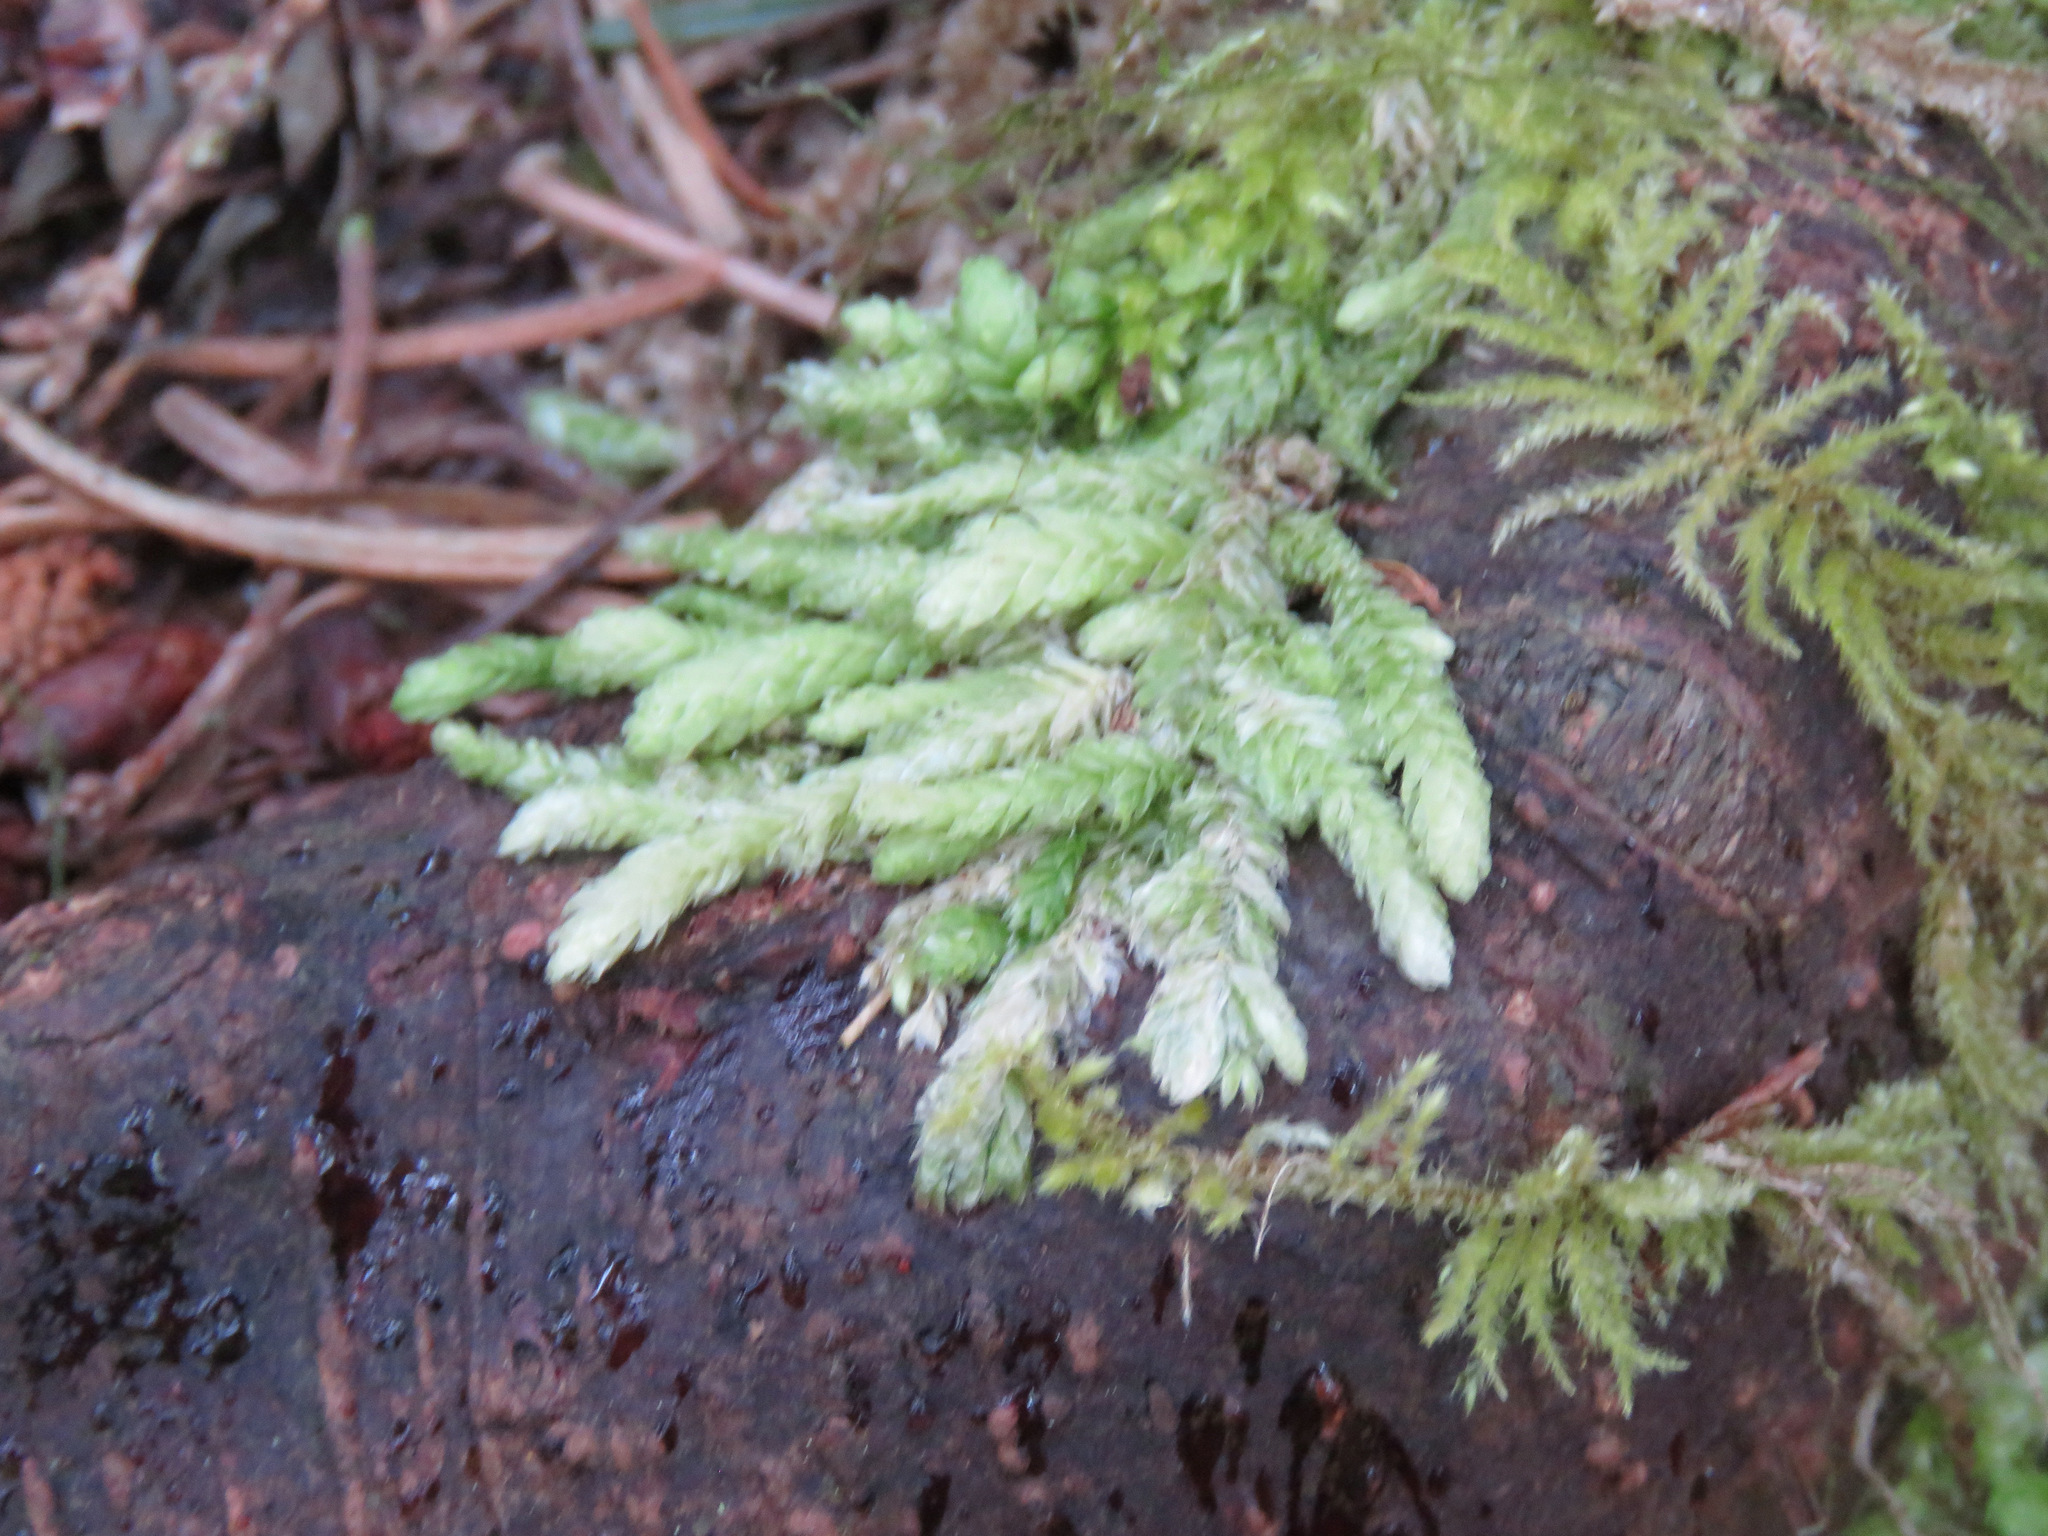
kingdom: Plantae
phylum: Bryophyta
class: Bryopsida
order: Hypnales
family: Plagiotheciaceae
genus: Plagiothecium
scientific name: Plagiothecium undulatum
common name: Waved silk-moss
